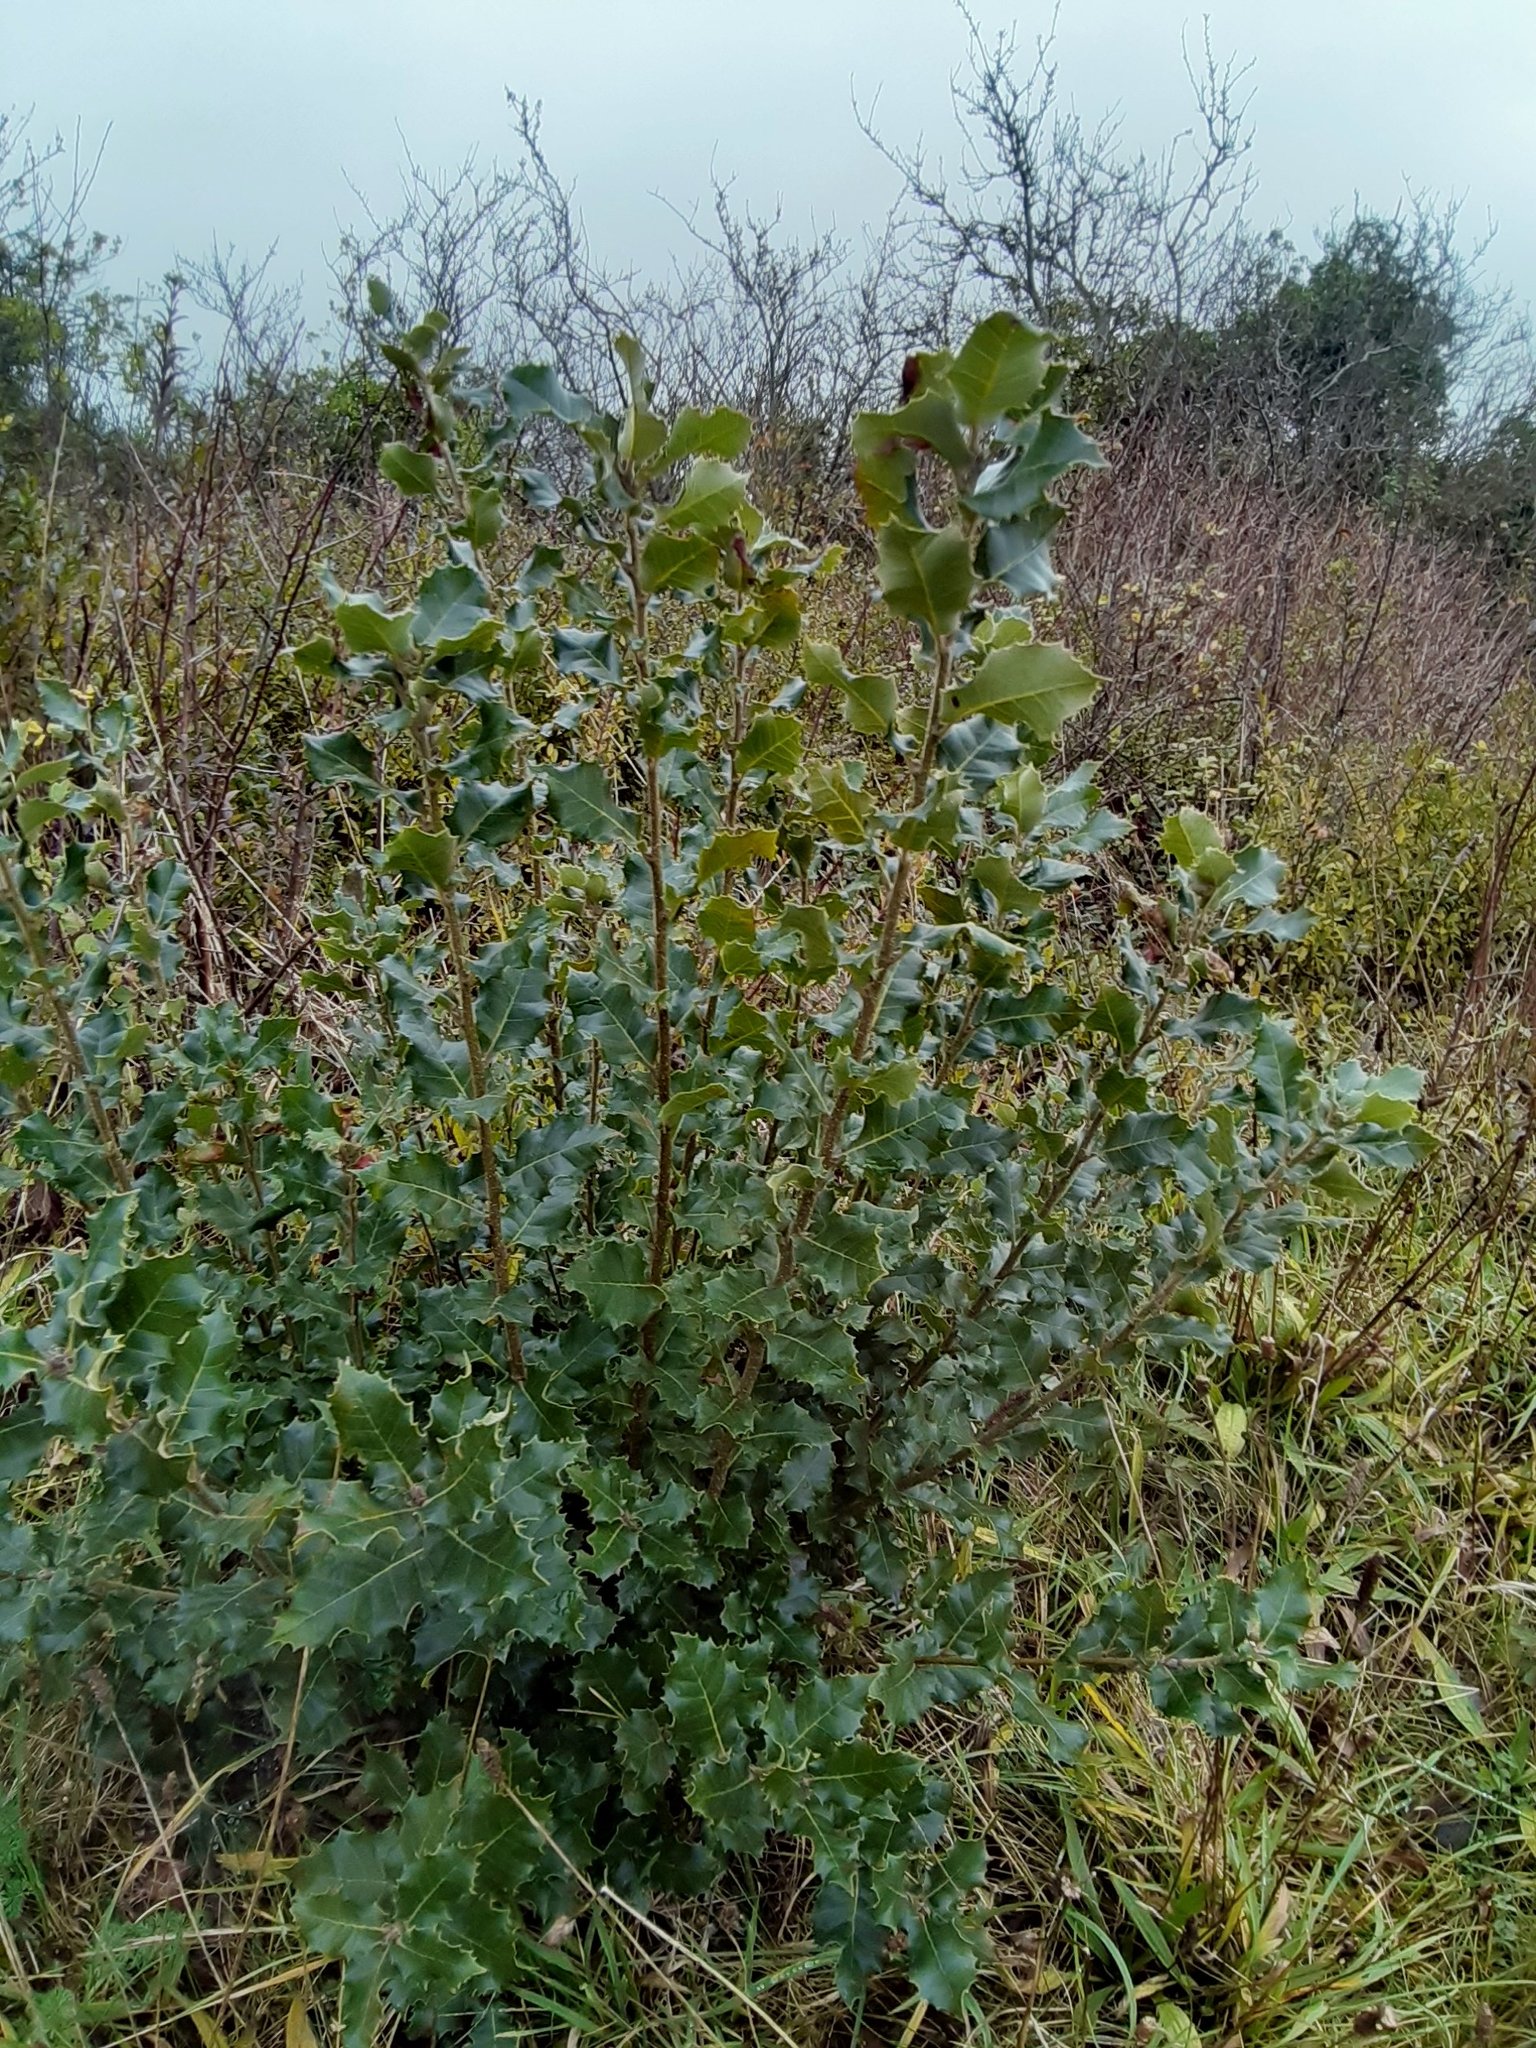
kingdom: Plantae
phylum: Tracheophyta
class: Magnoliopsida
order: Fagales
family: Fagaceae
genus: Quercus
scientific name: Quercus ilex
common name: Evergreen oak
